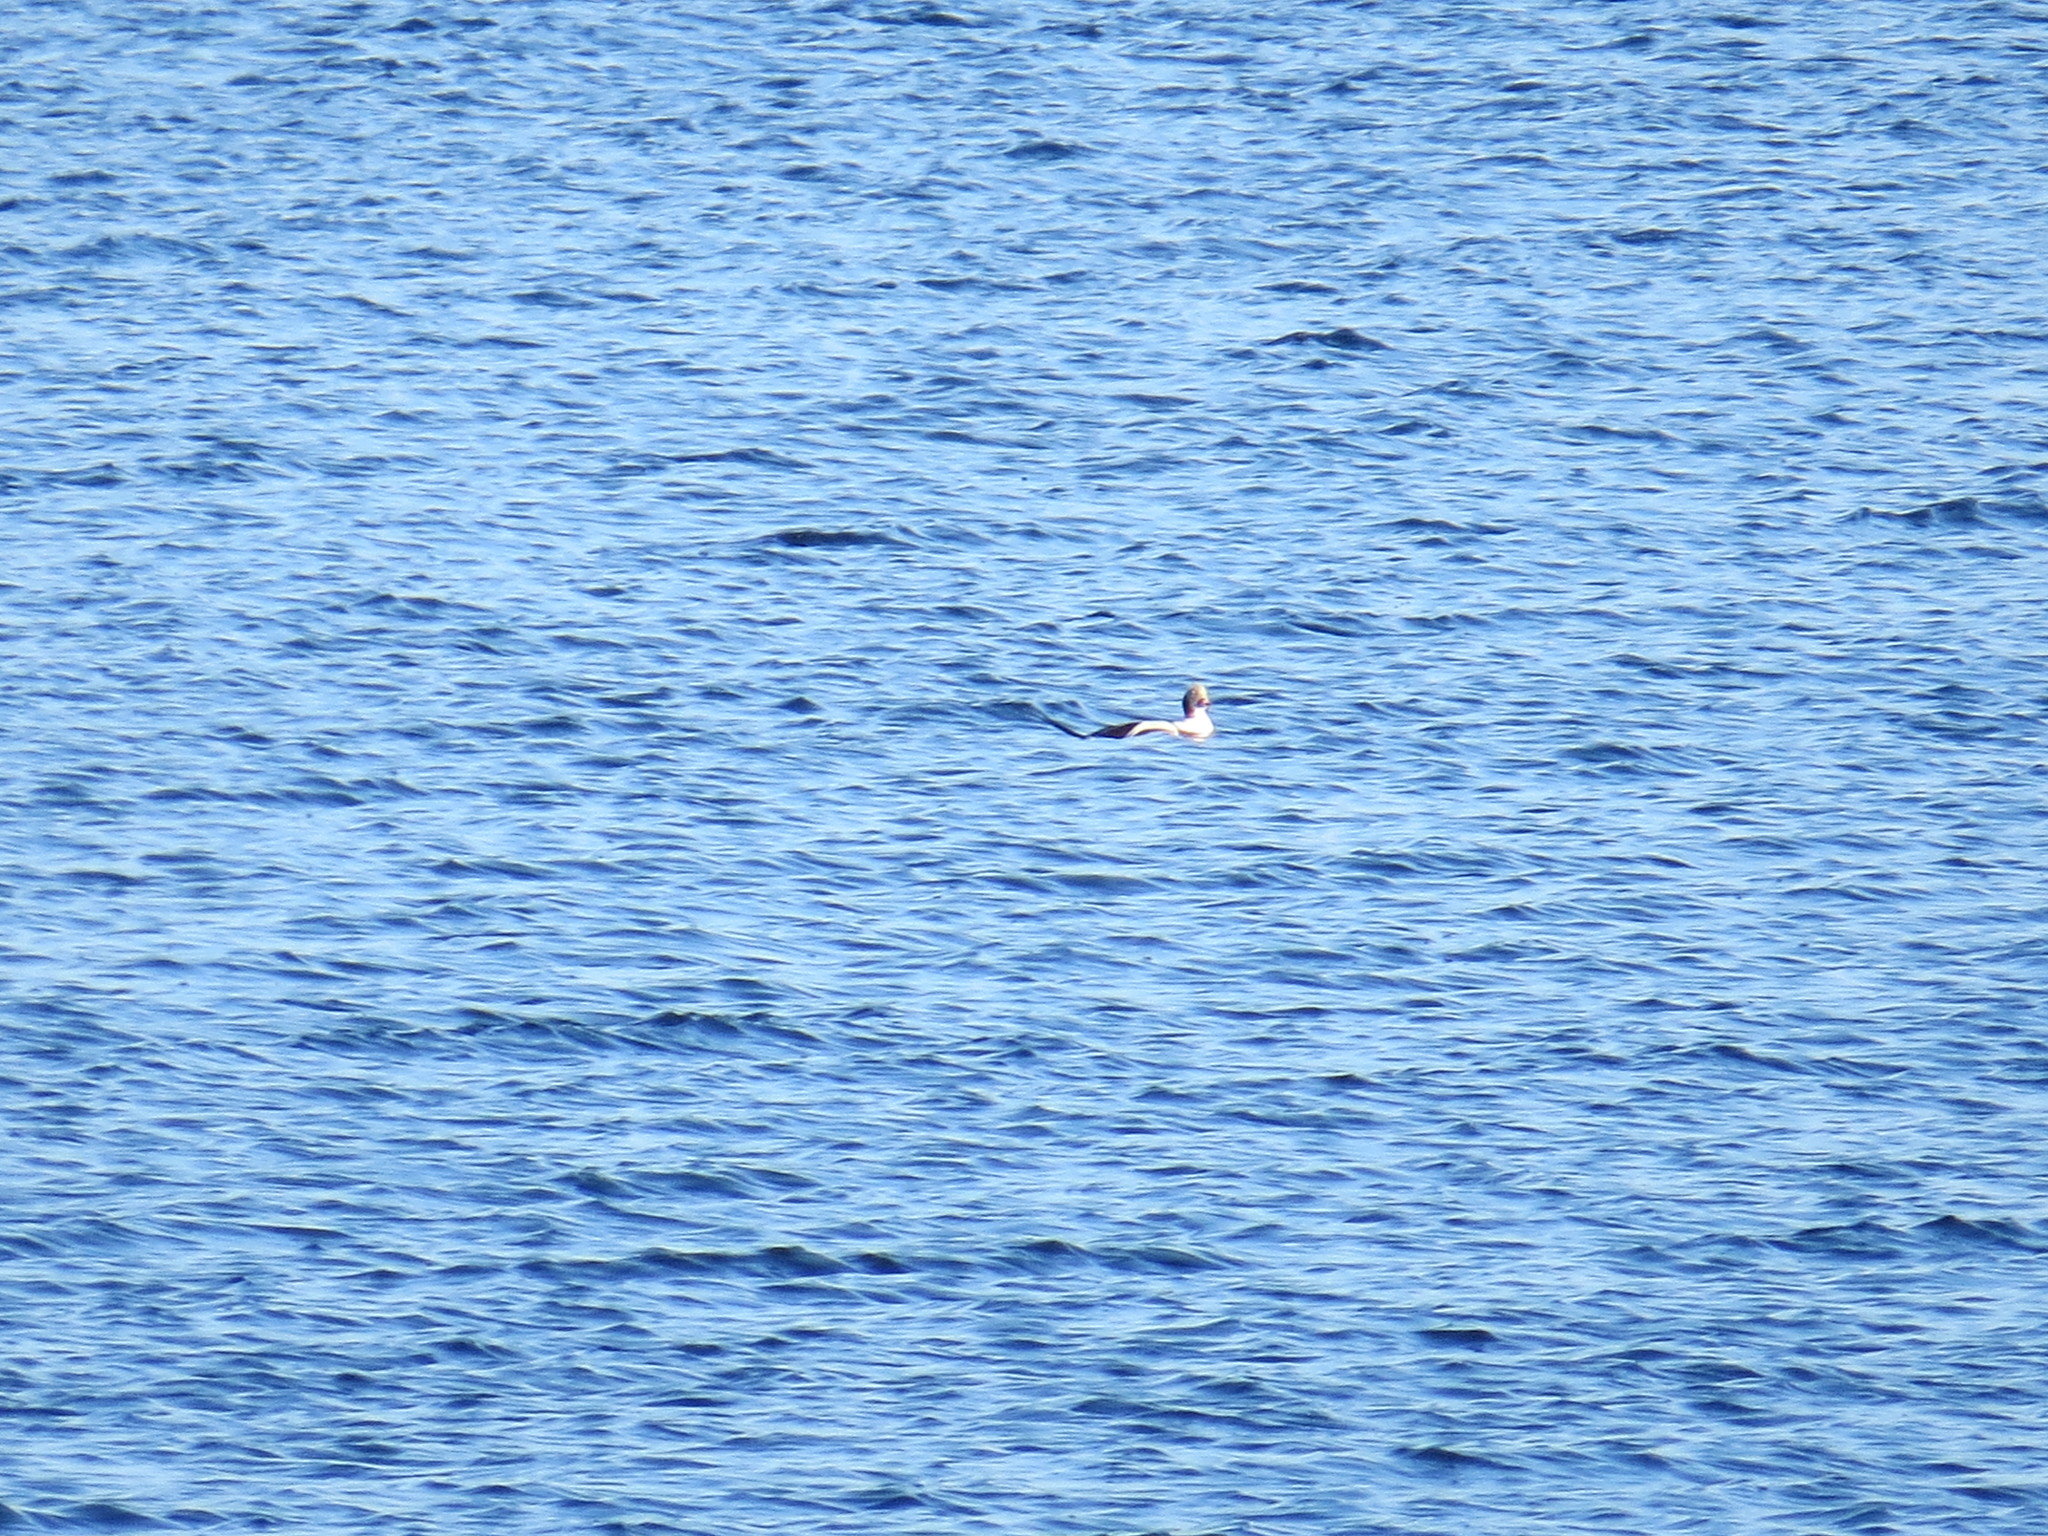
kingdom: Animalia
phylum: Chordata
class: Aves
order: Anseriformes
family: Anatidae
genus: Clangula
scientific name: Clangula hyemalis
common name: Long-tailed duck
